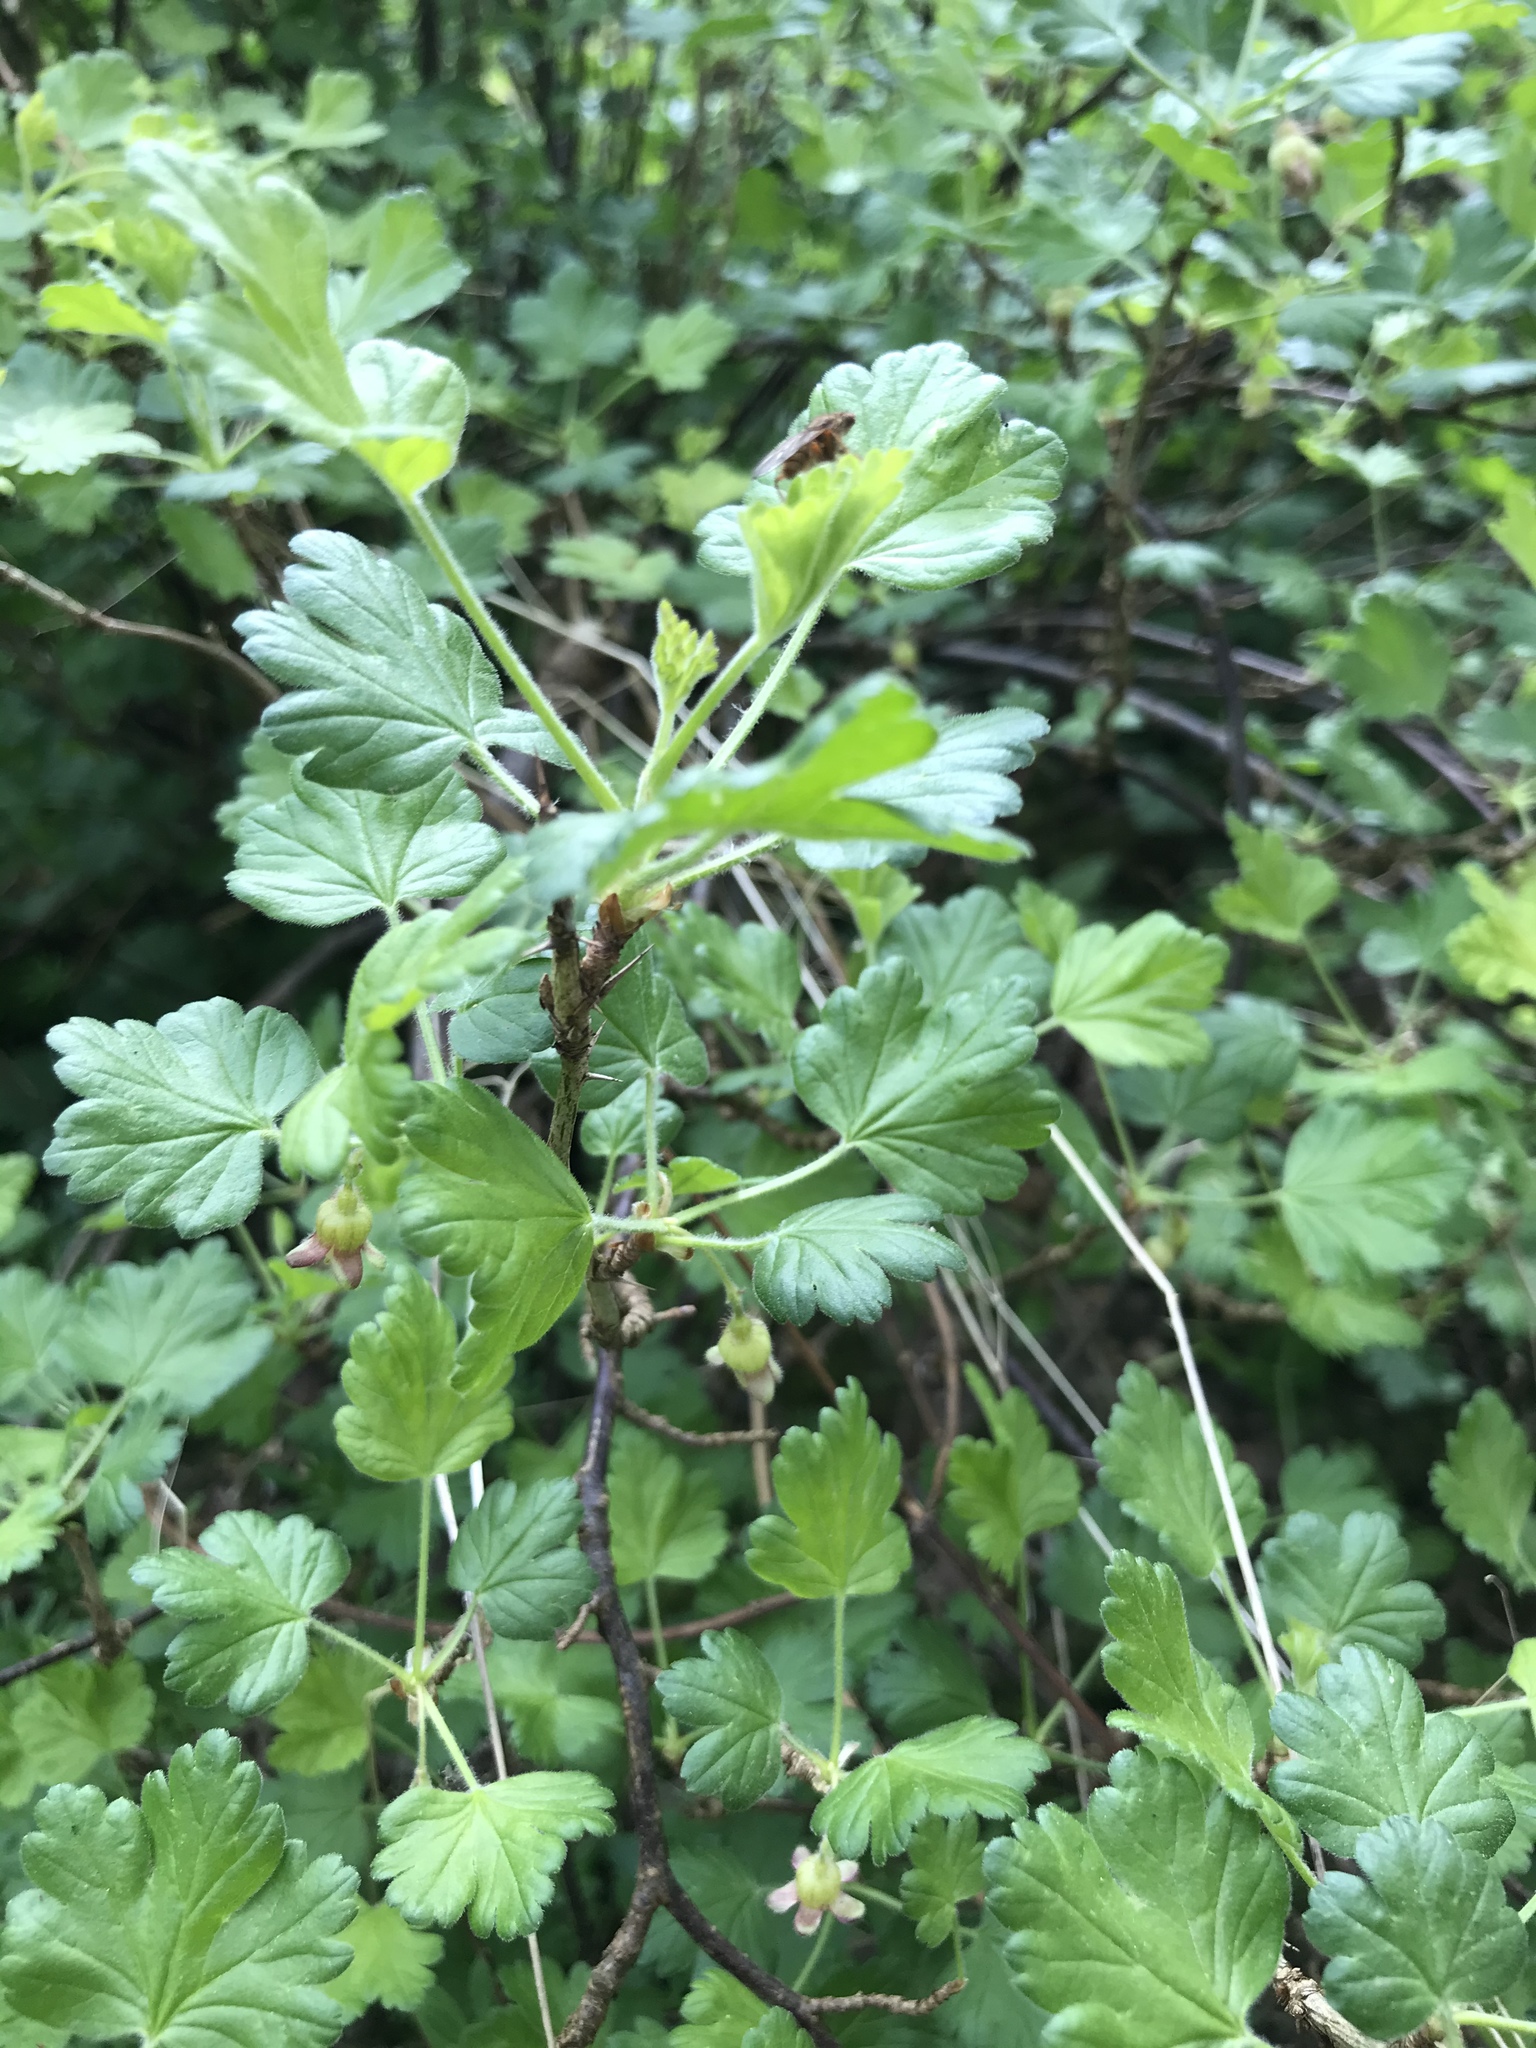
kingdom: Plantae
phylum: Tracheophyta
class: Magnoliopsida
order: Saxifragales
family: Grossulariaceae
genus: Ribes
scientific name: Ribes uva-crispa
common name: Gooseberry
